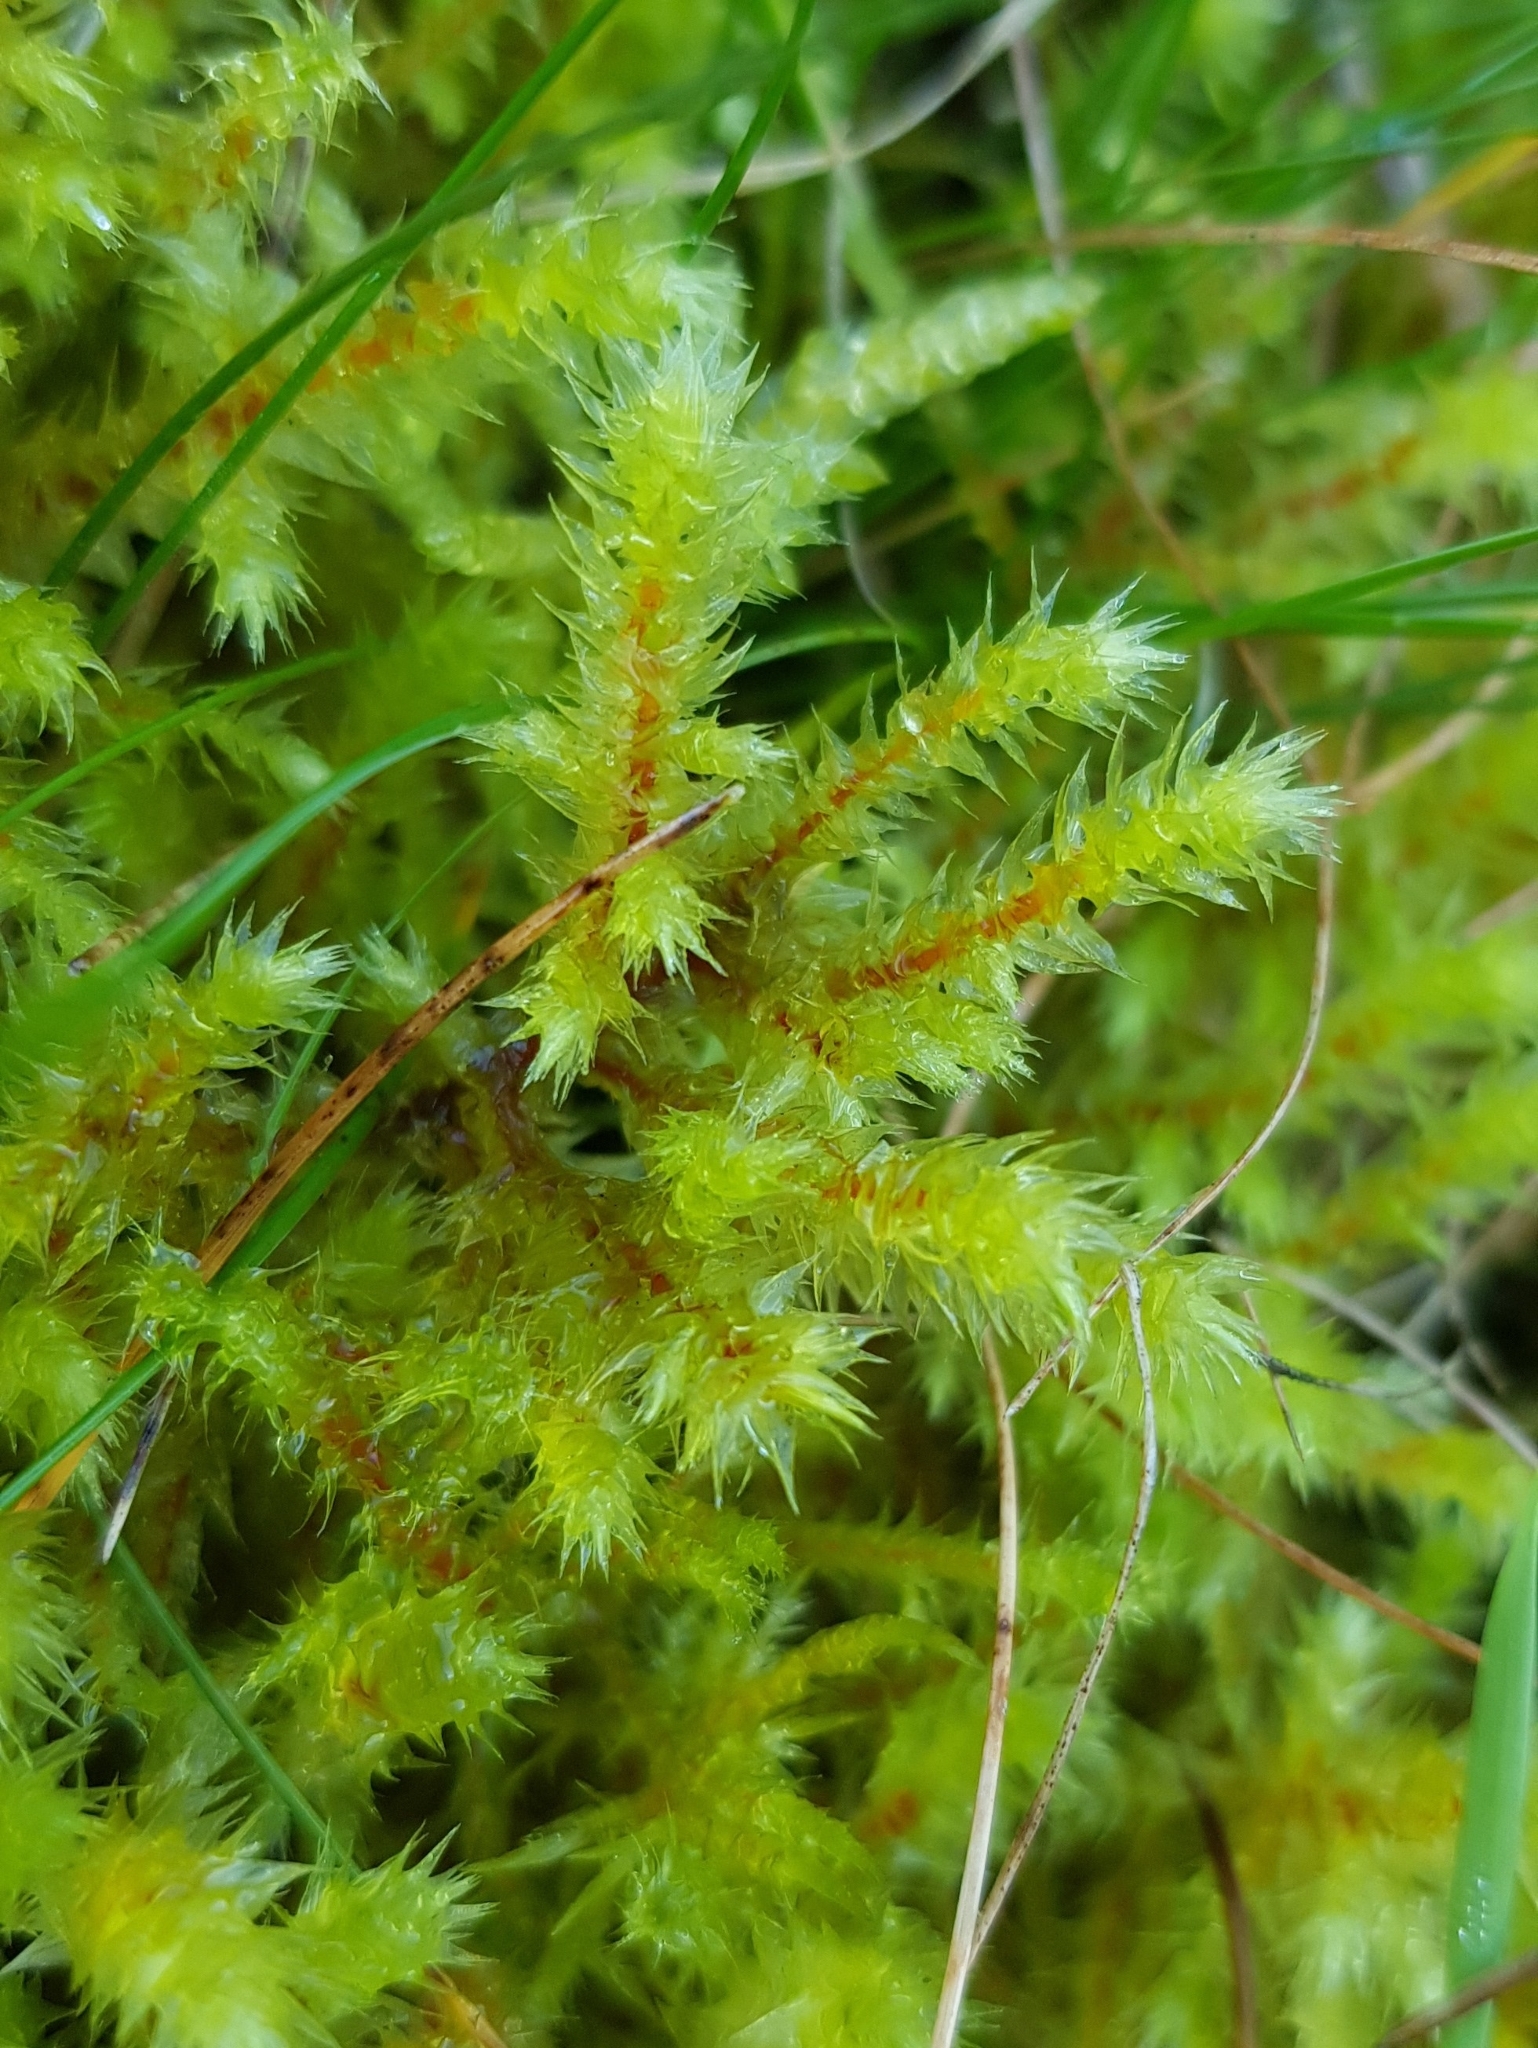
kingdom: Plantae
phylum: Bryophyta
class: Bryopsida
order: Hypnales
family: Hylocomiaceae
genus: Hylocomiadelphus
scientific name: Hylocomiadelphus triquetrus
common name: Rough goose neck moss
